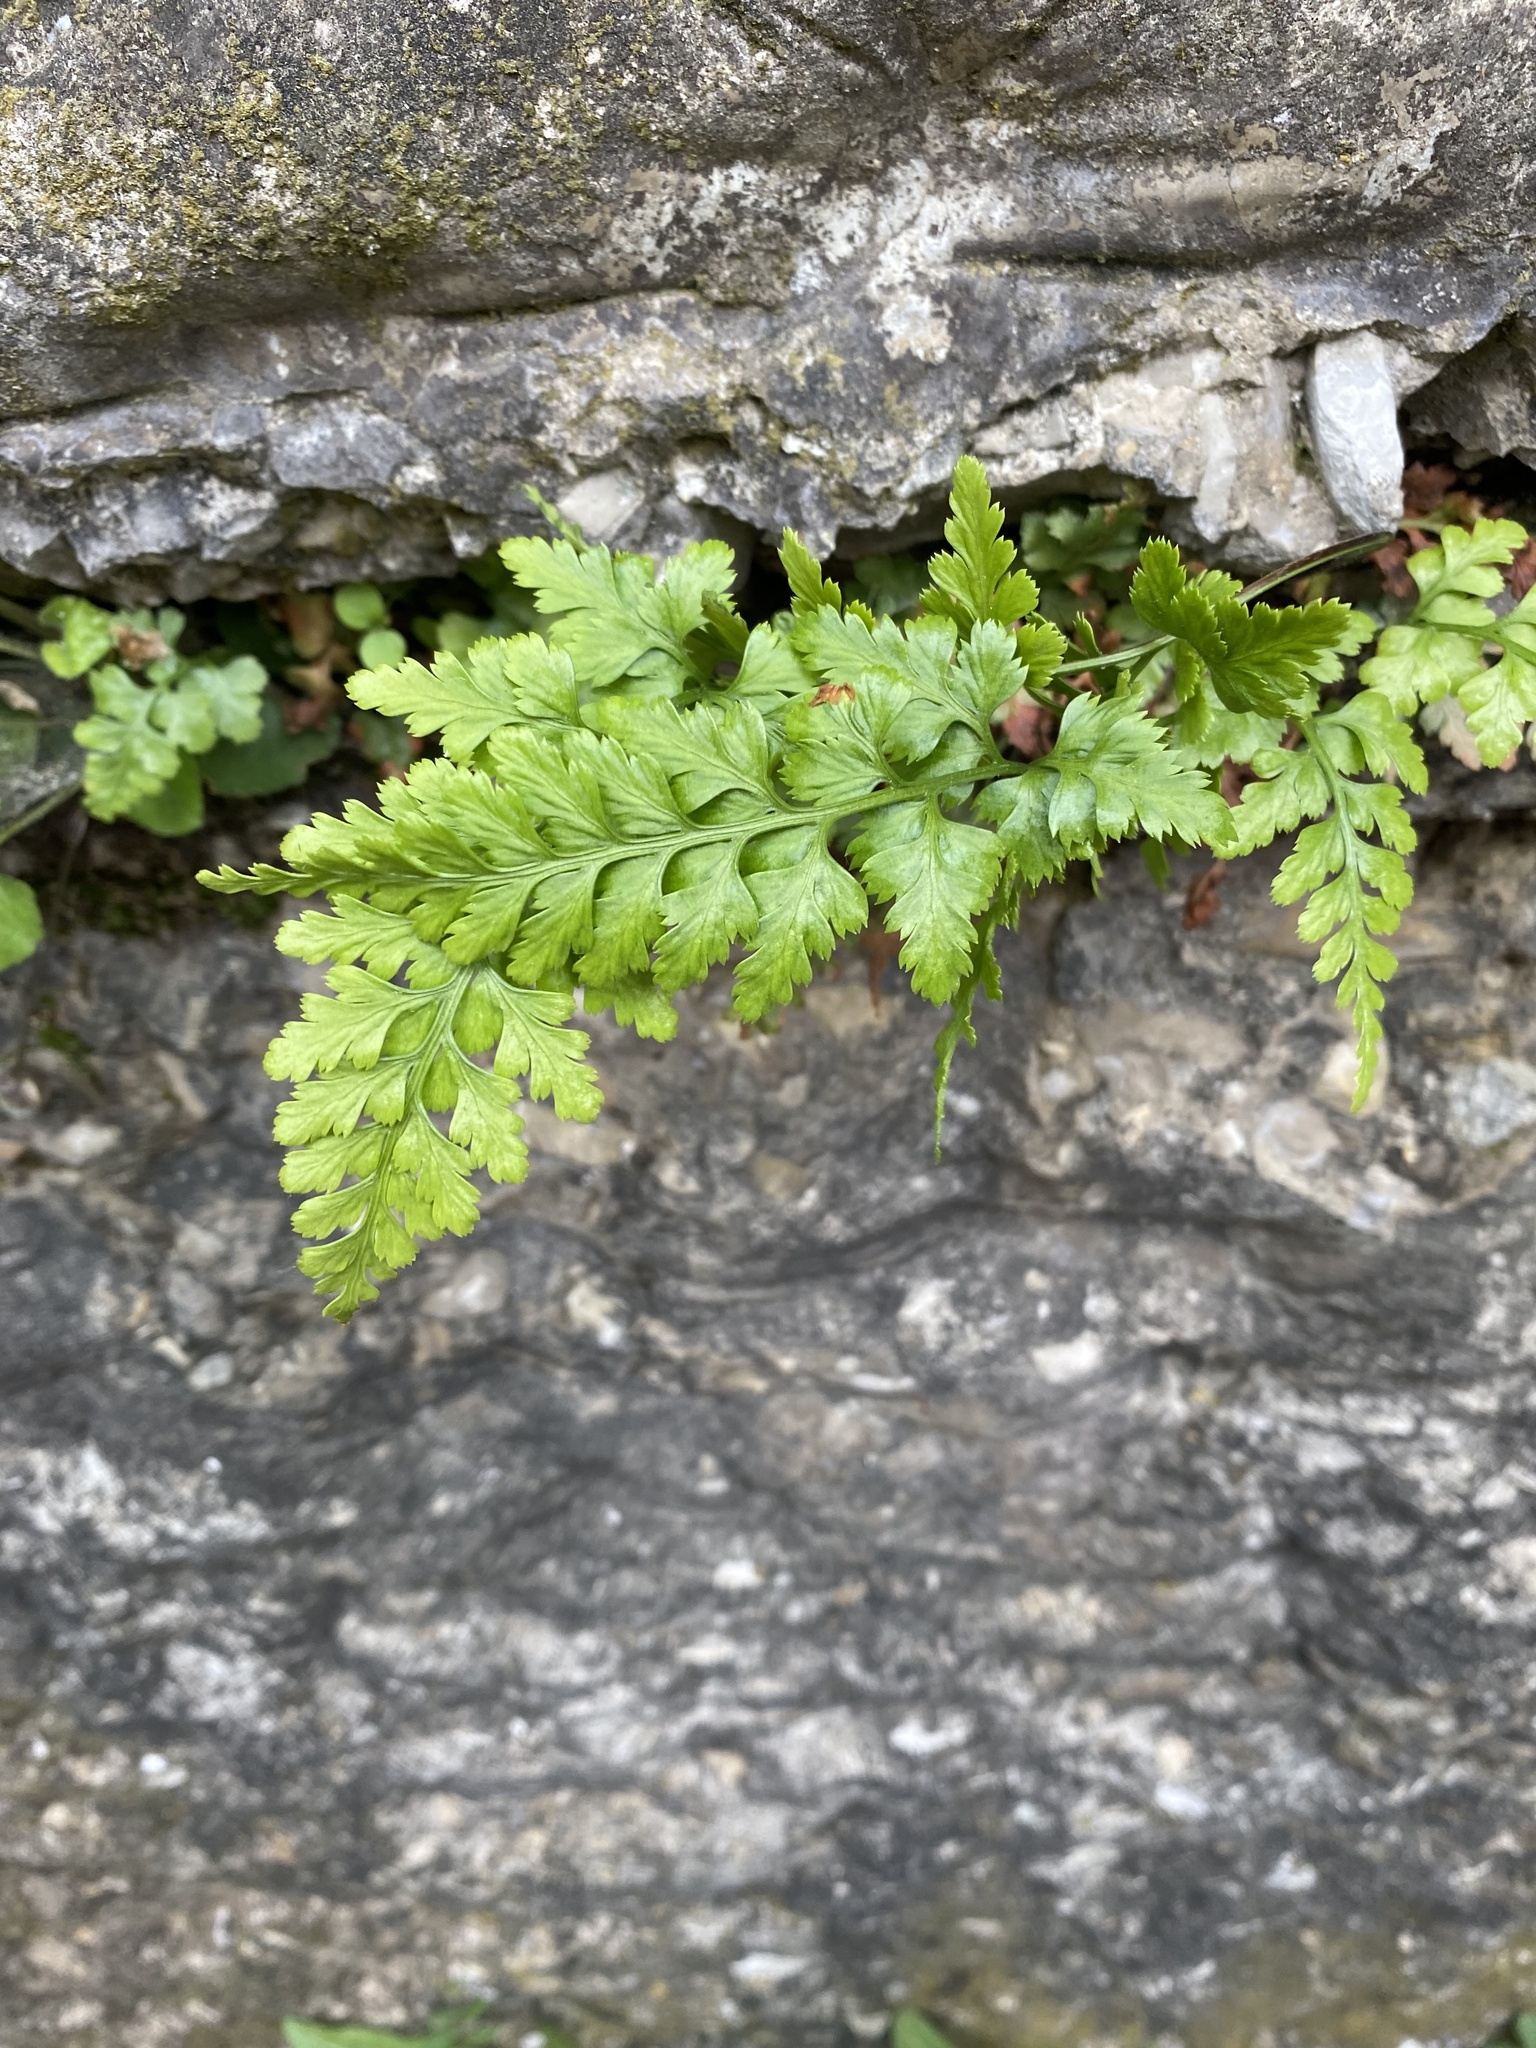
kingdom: Plantae
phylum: Tracheophyta
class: Polypodiopsida
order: Polypodiales
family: Aspleniaceae
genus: Asplenium
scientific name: Asplenium adiantum-nigrum
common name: Black spleenwort
